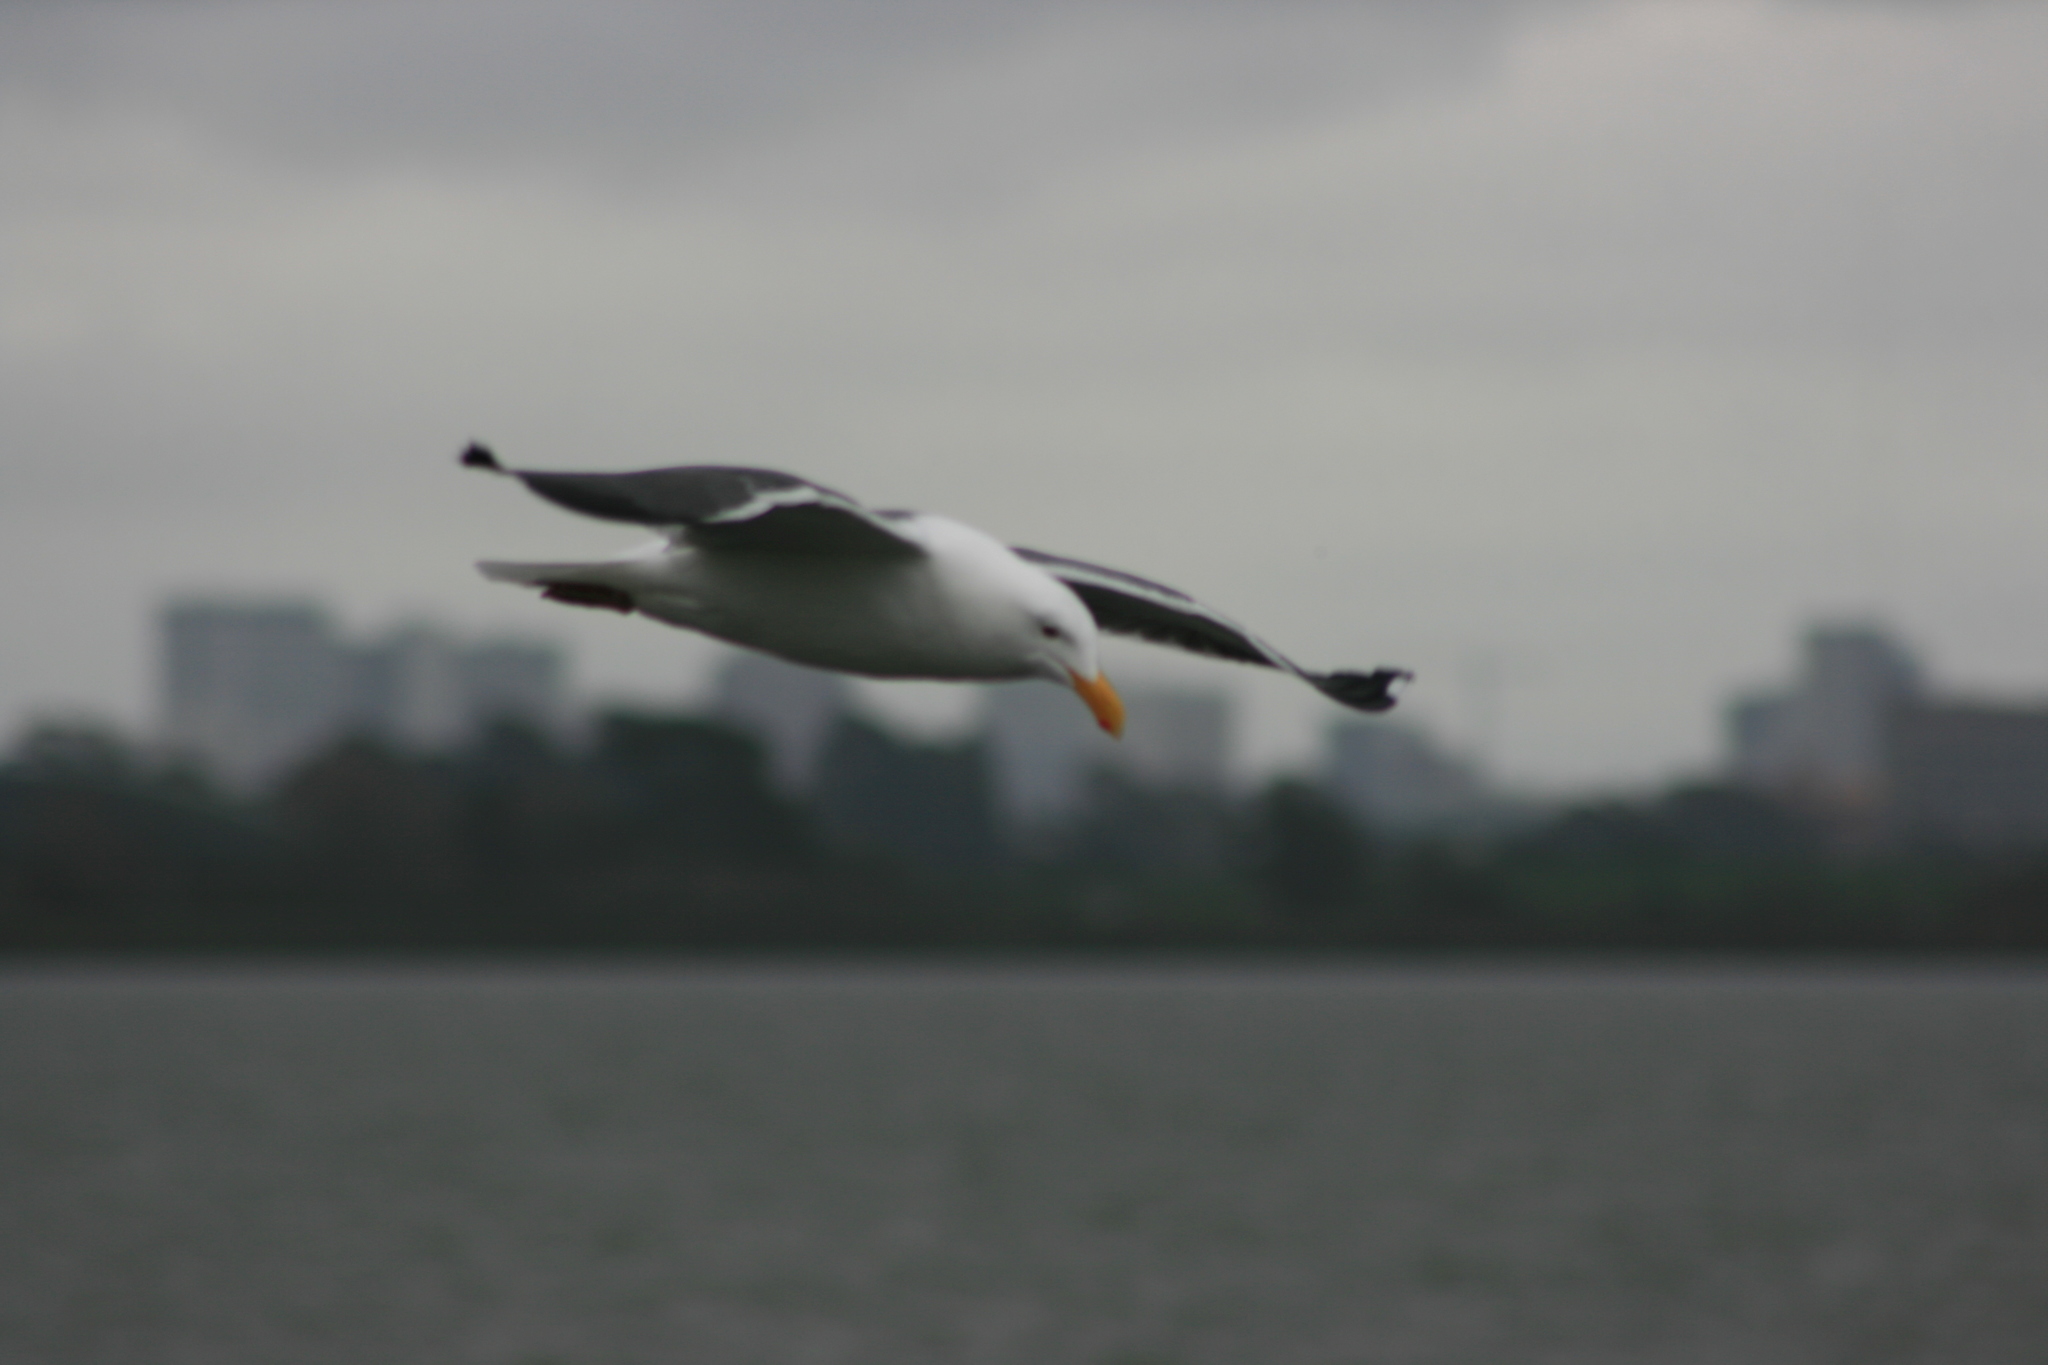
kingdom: Animalia
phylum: Chordata
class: Aves
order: Charadriiformes
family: Laridae
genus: Larus
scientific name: Larus occidentalis
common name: Western gull
